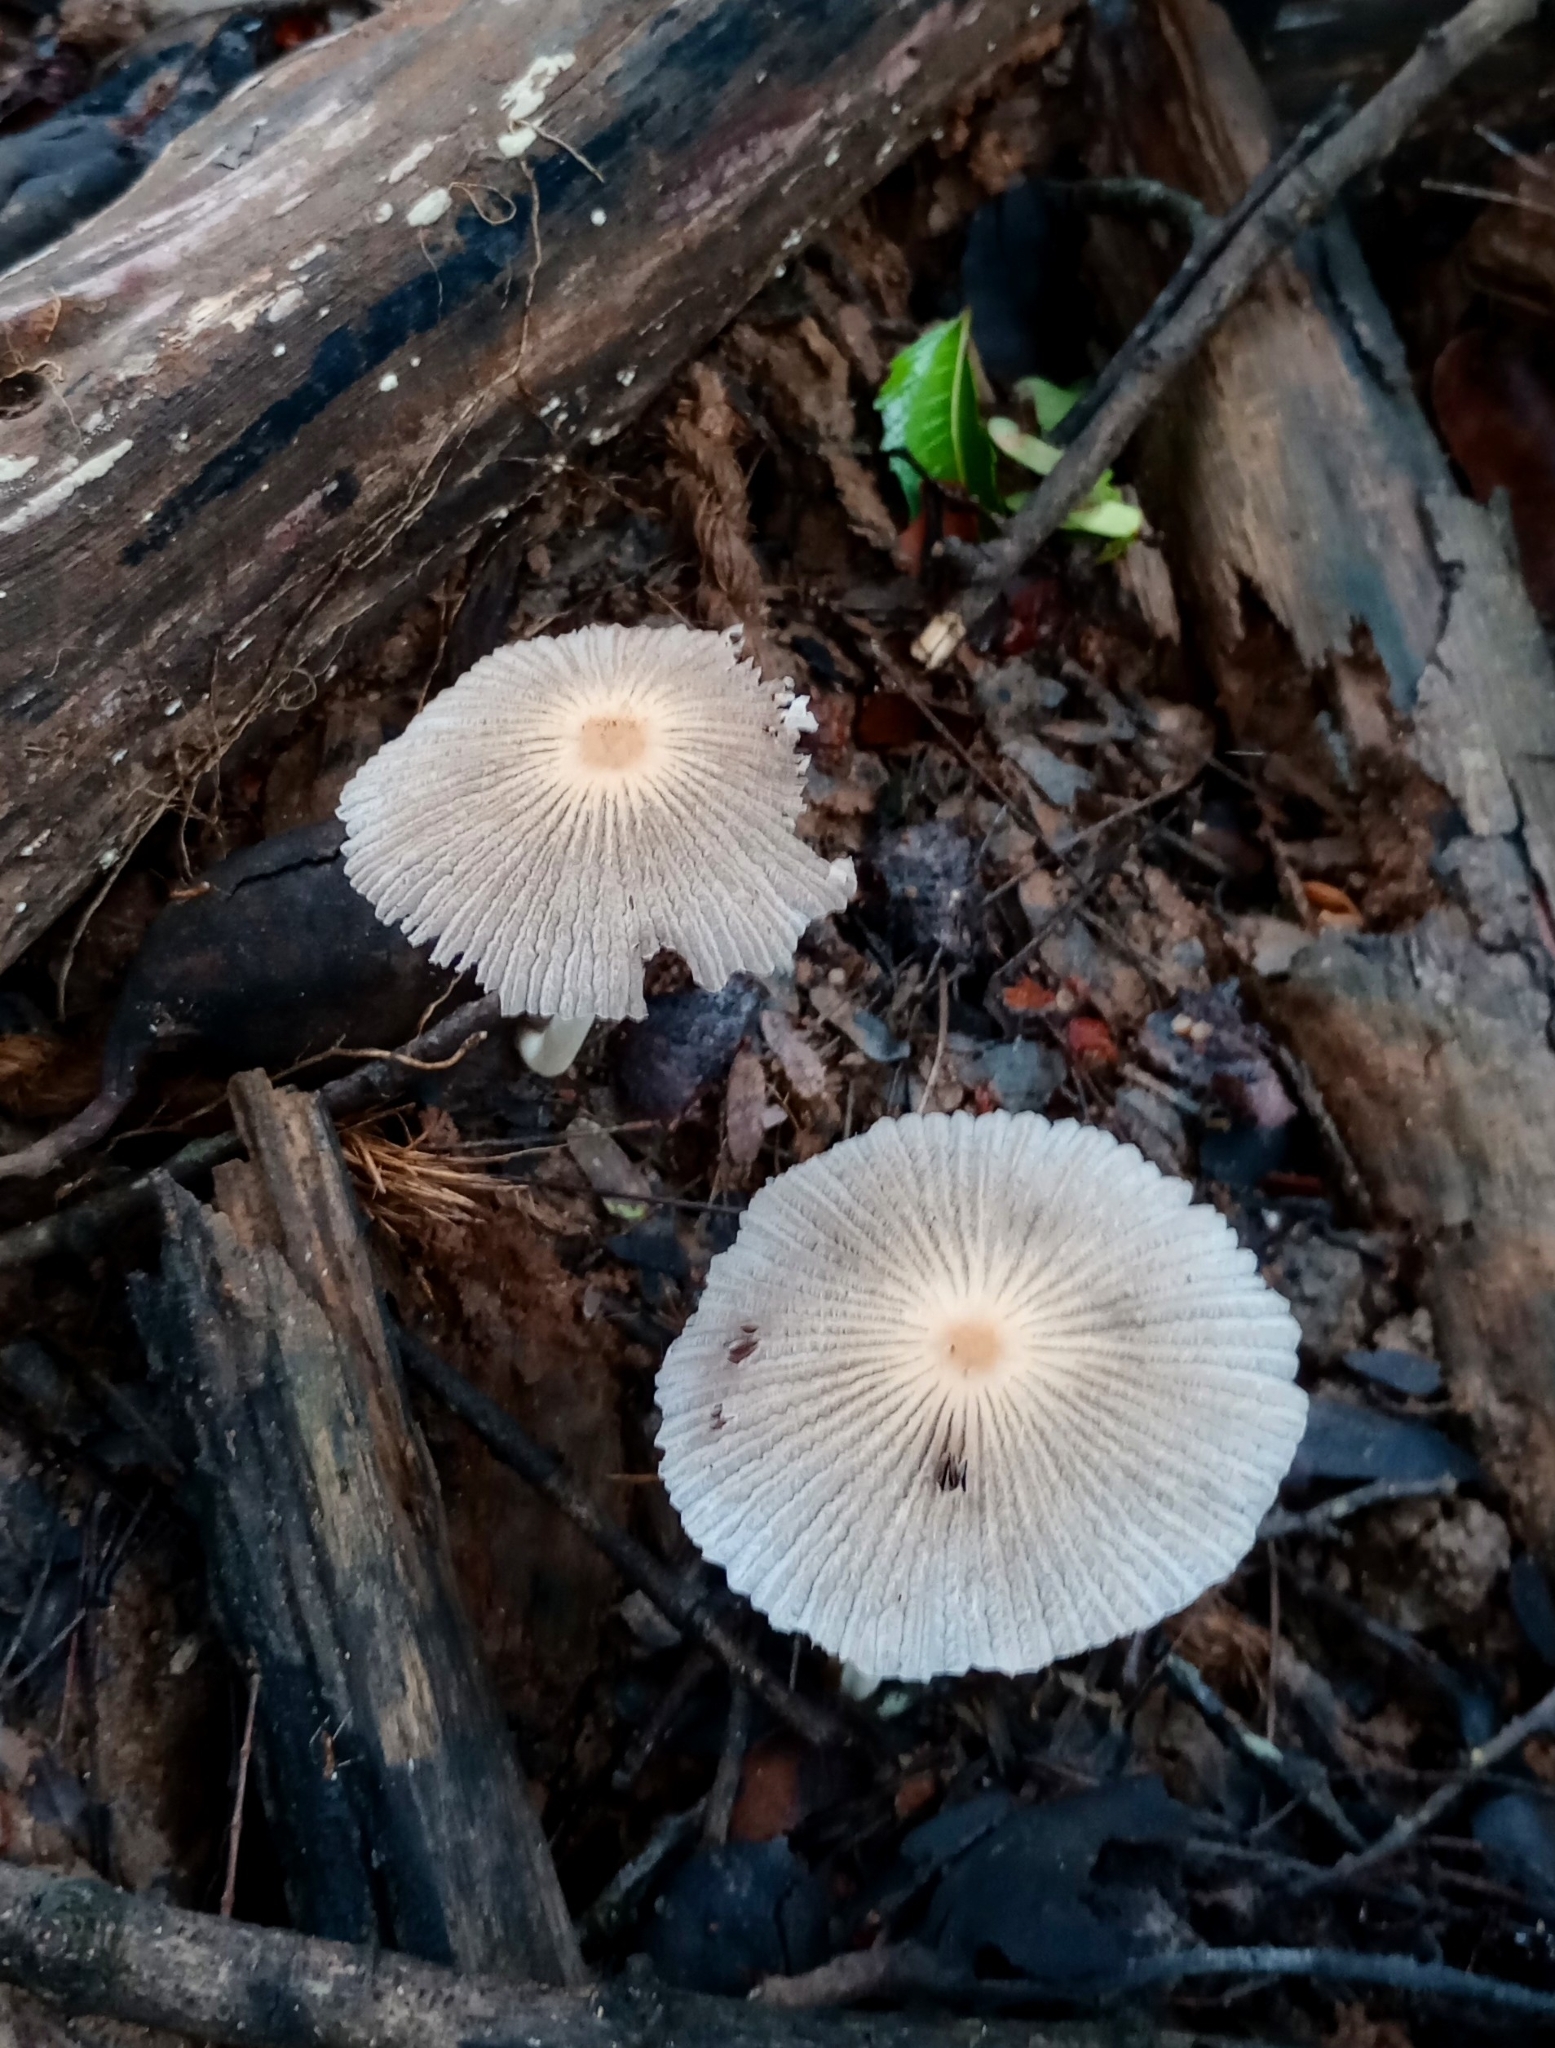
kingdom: Fungi
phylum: Basidiomycota
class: Agaricomycetes
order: Agaricales
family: Psathyrellaceae
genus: Coprinellus
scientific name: Coprinellus aureogranulatus
